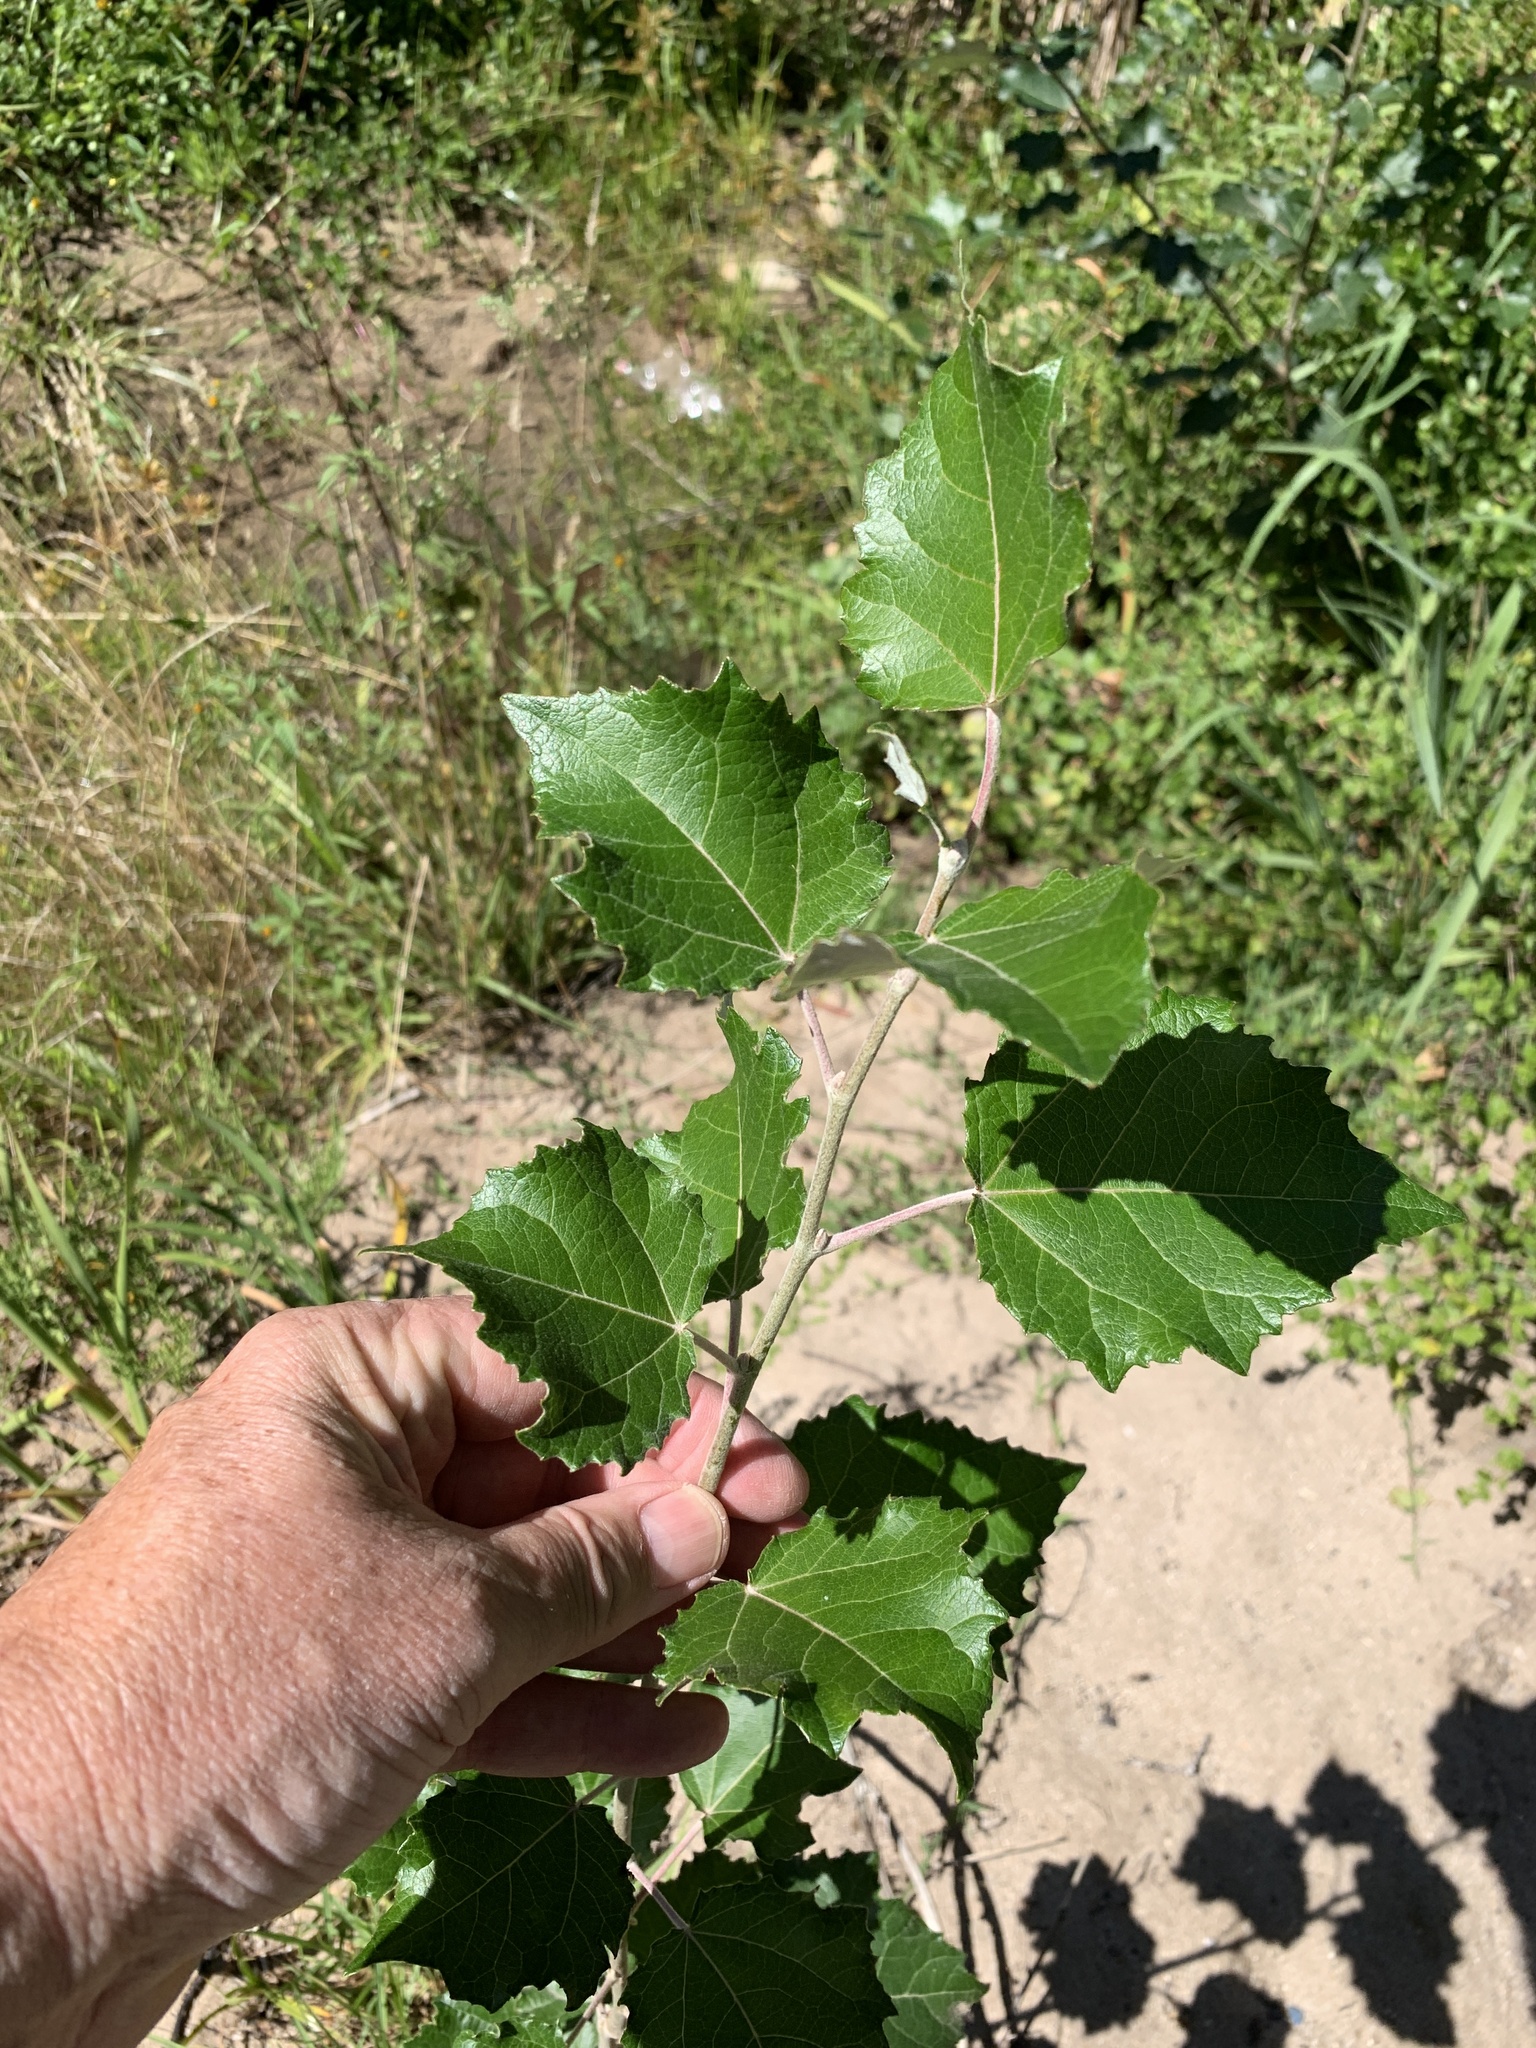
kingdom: Plantae
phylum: Tracheophyta
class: Magnoliopsida
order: Malpighiales
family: Salicaceae
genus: Populus
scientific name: Populus canescens
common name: Gray poplar
